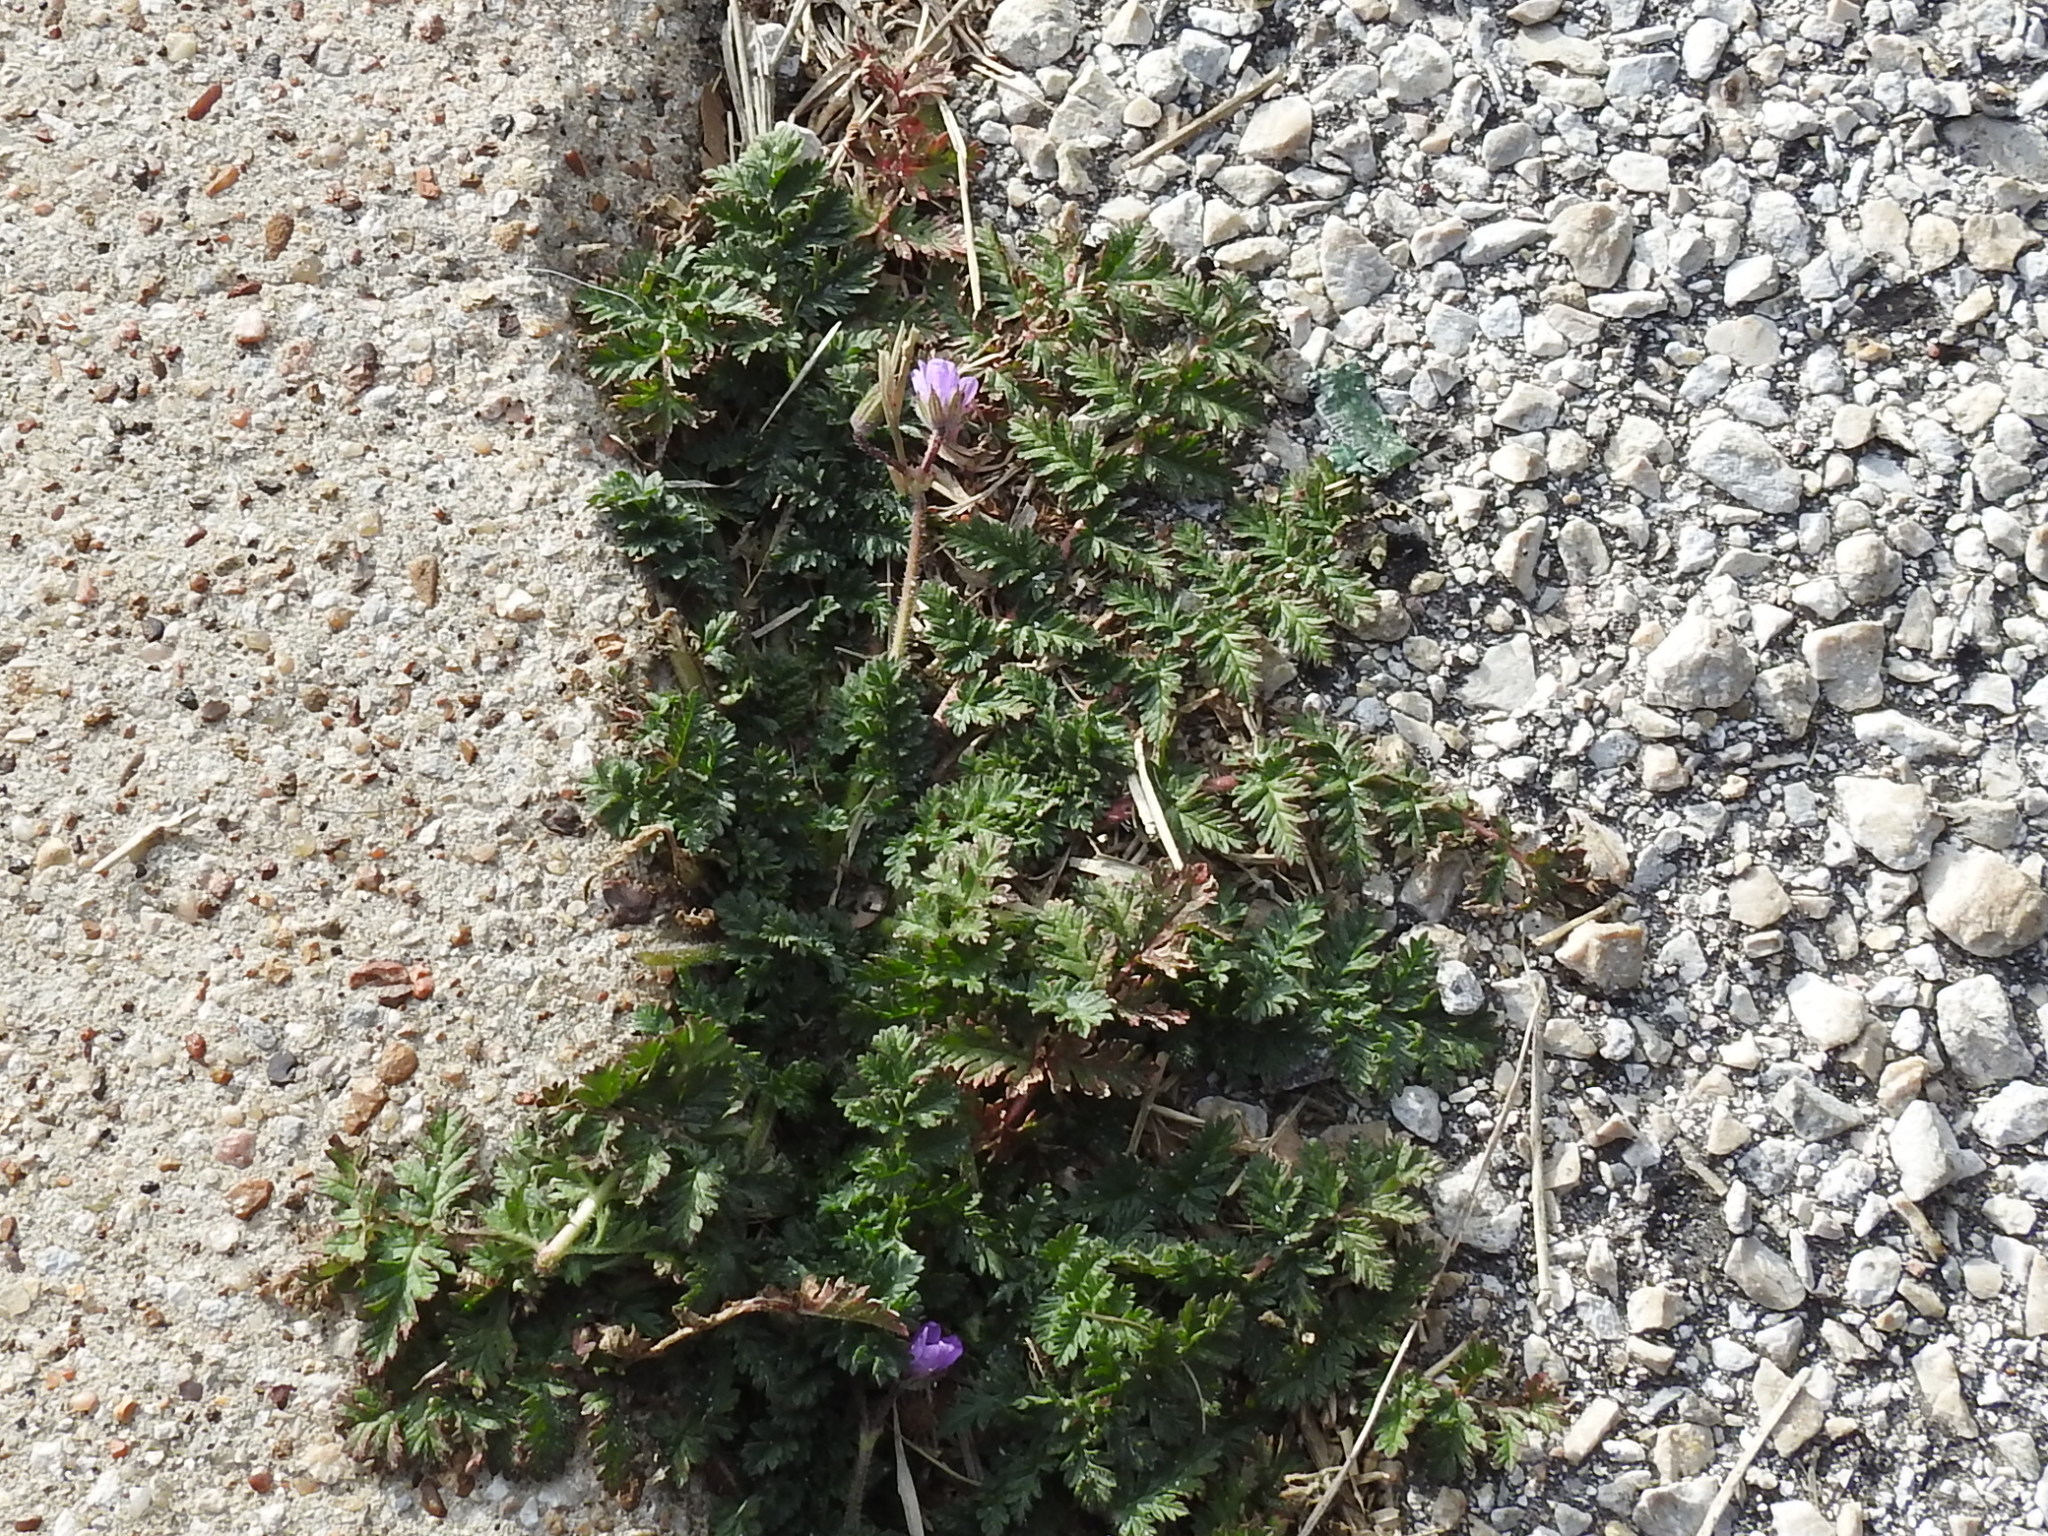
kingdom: Plantae
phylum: Tracheophyta
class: Magnoliopsida
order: Geraniales
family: Geraniaceae
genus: Erodium
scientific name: Erodium cicutarium
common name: Common stork's-bill
